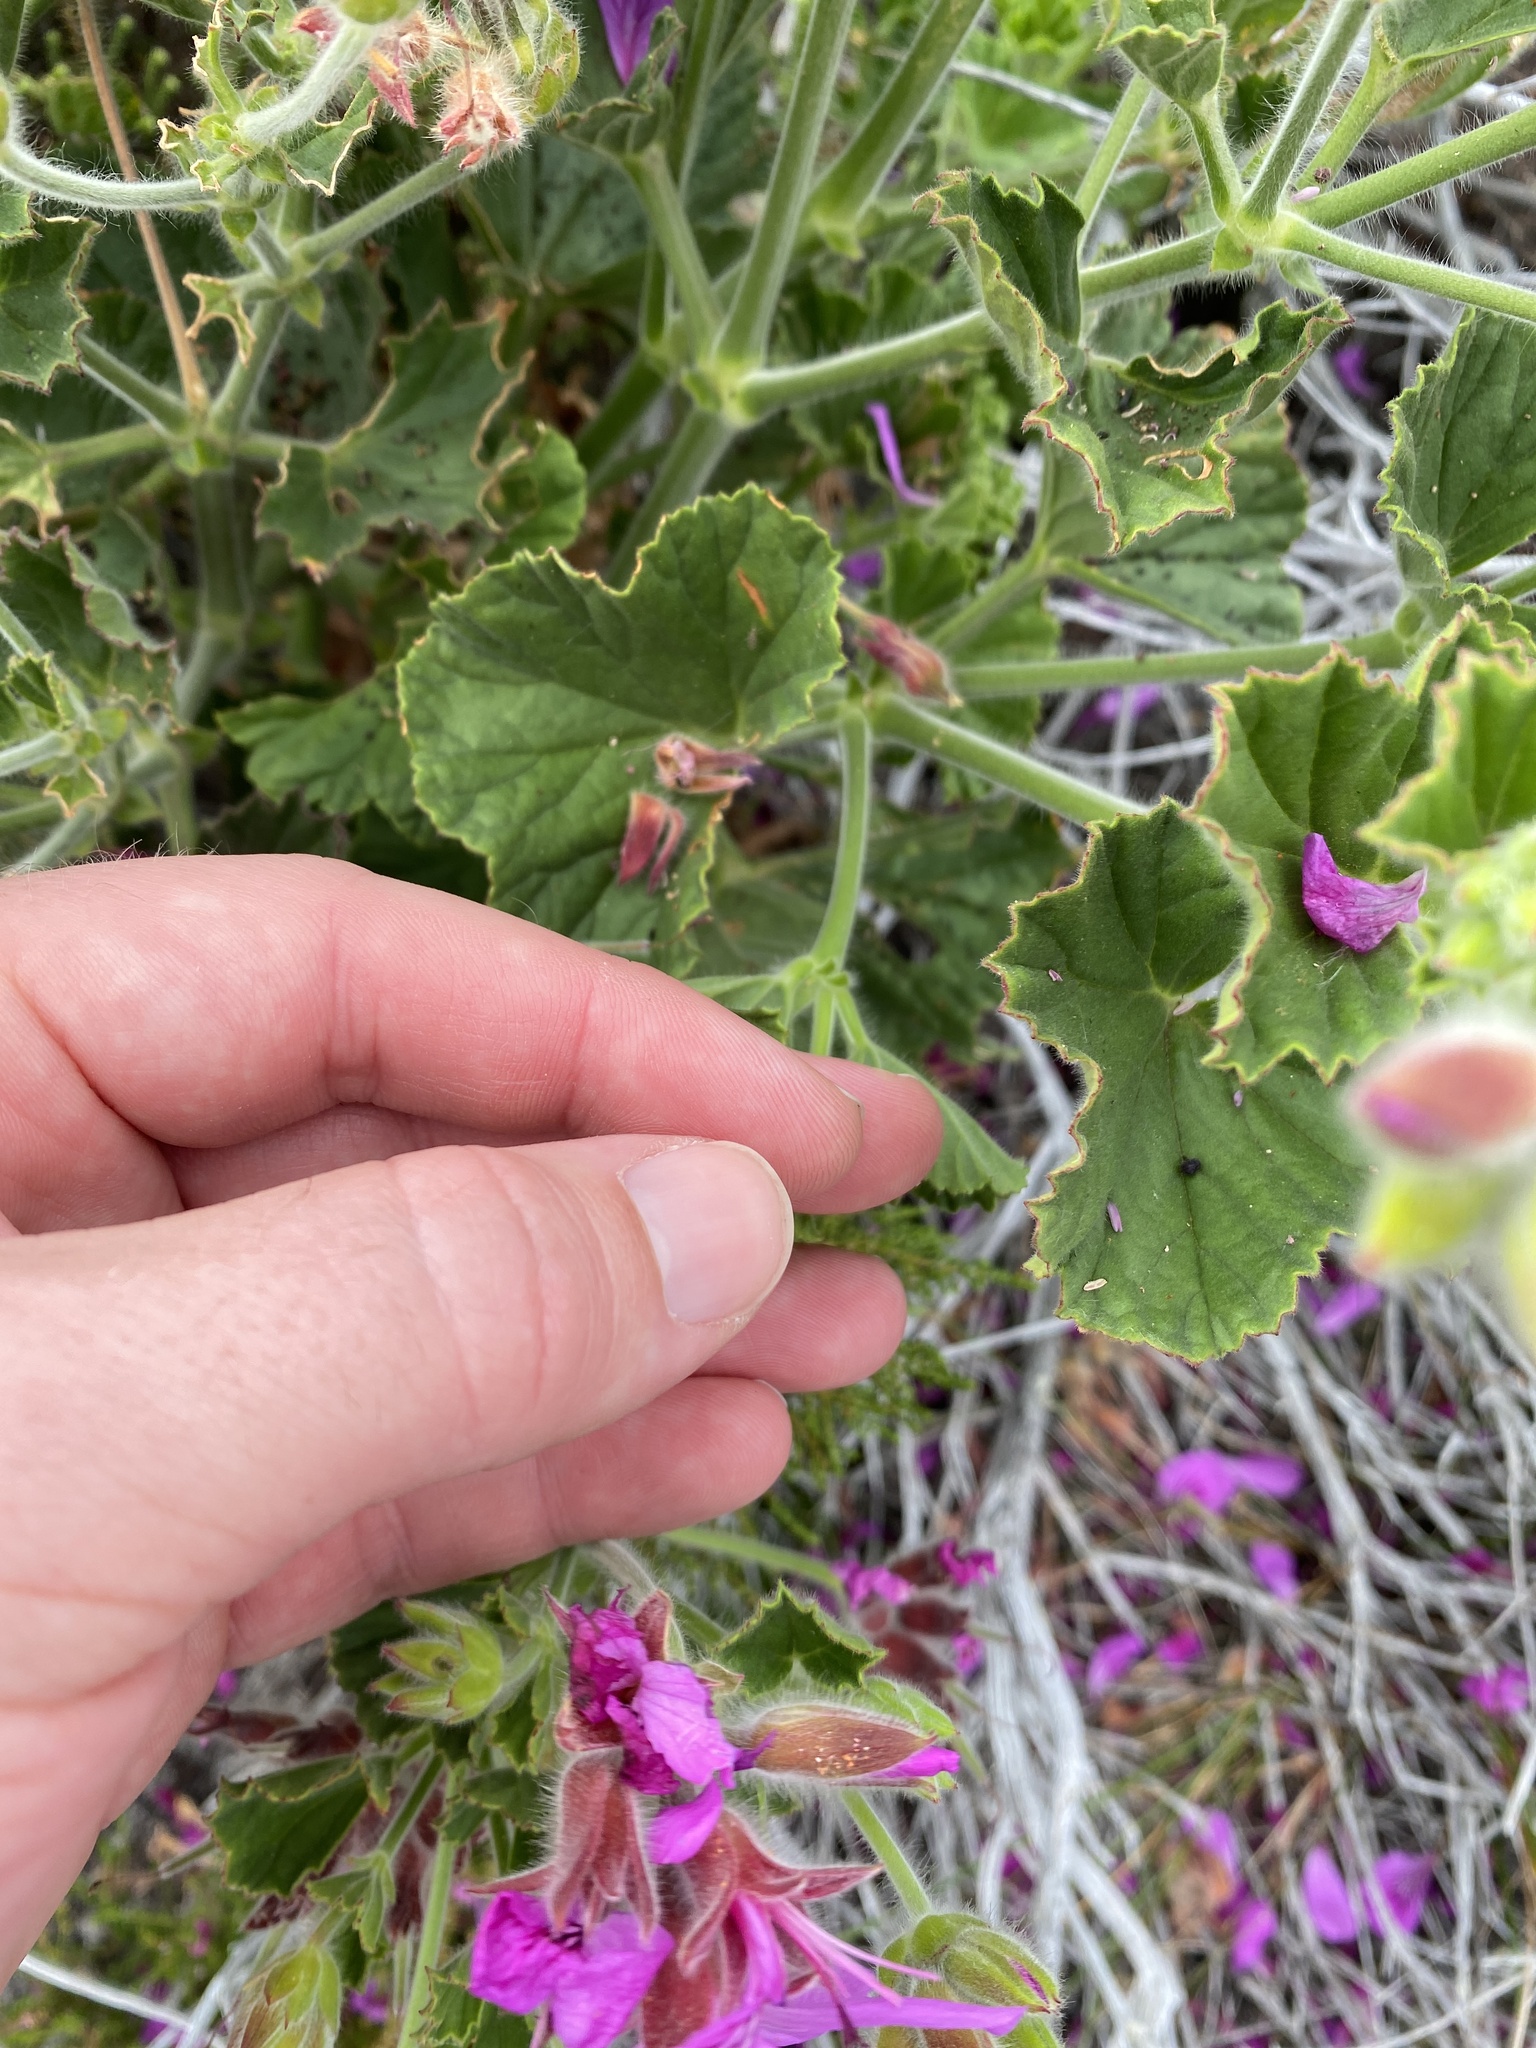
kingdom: Plantae
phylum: Tracheophyta
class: Magnoliopsida
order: Geraniales
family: Geraniaceae
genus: Pelargonium
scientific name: Pelargonium cucullatum
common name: Tree pelargonium
